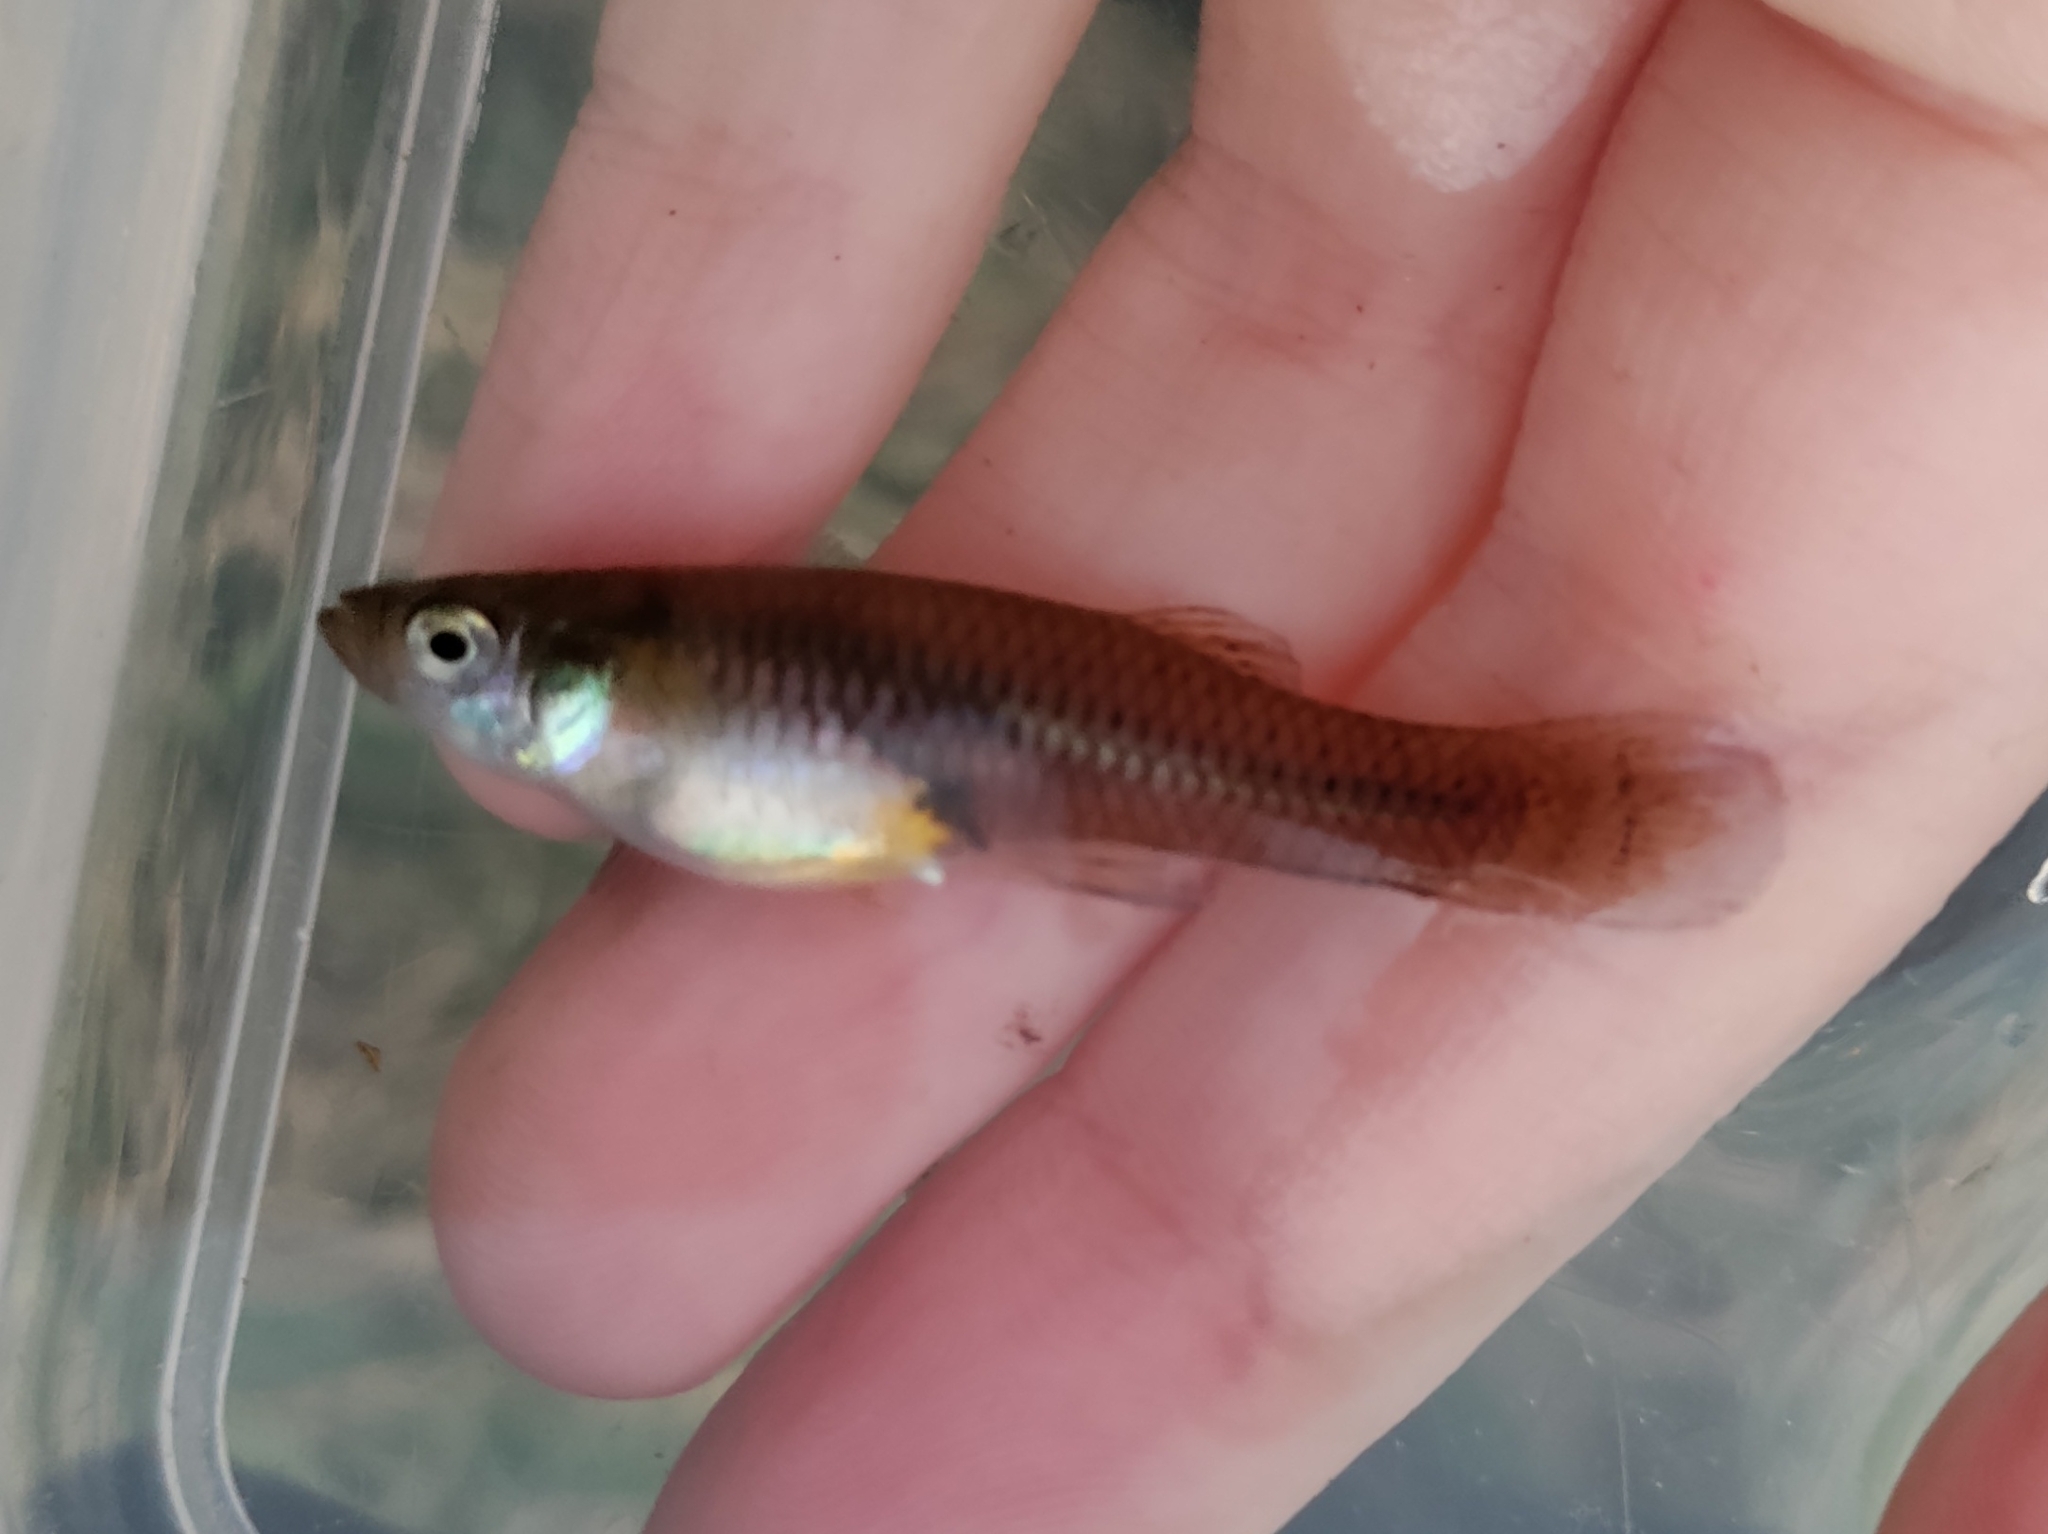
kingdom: Animalia
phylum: Chordata
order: Cyprinodontiformes
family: Poeciliidae
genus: Gambusia
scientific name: Gambusia affinis
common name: Mosquitofish
